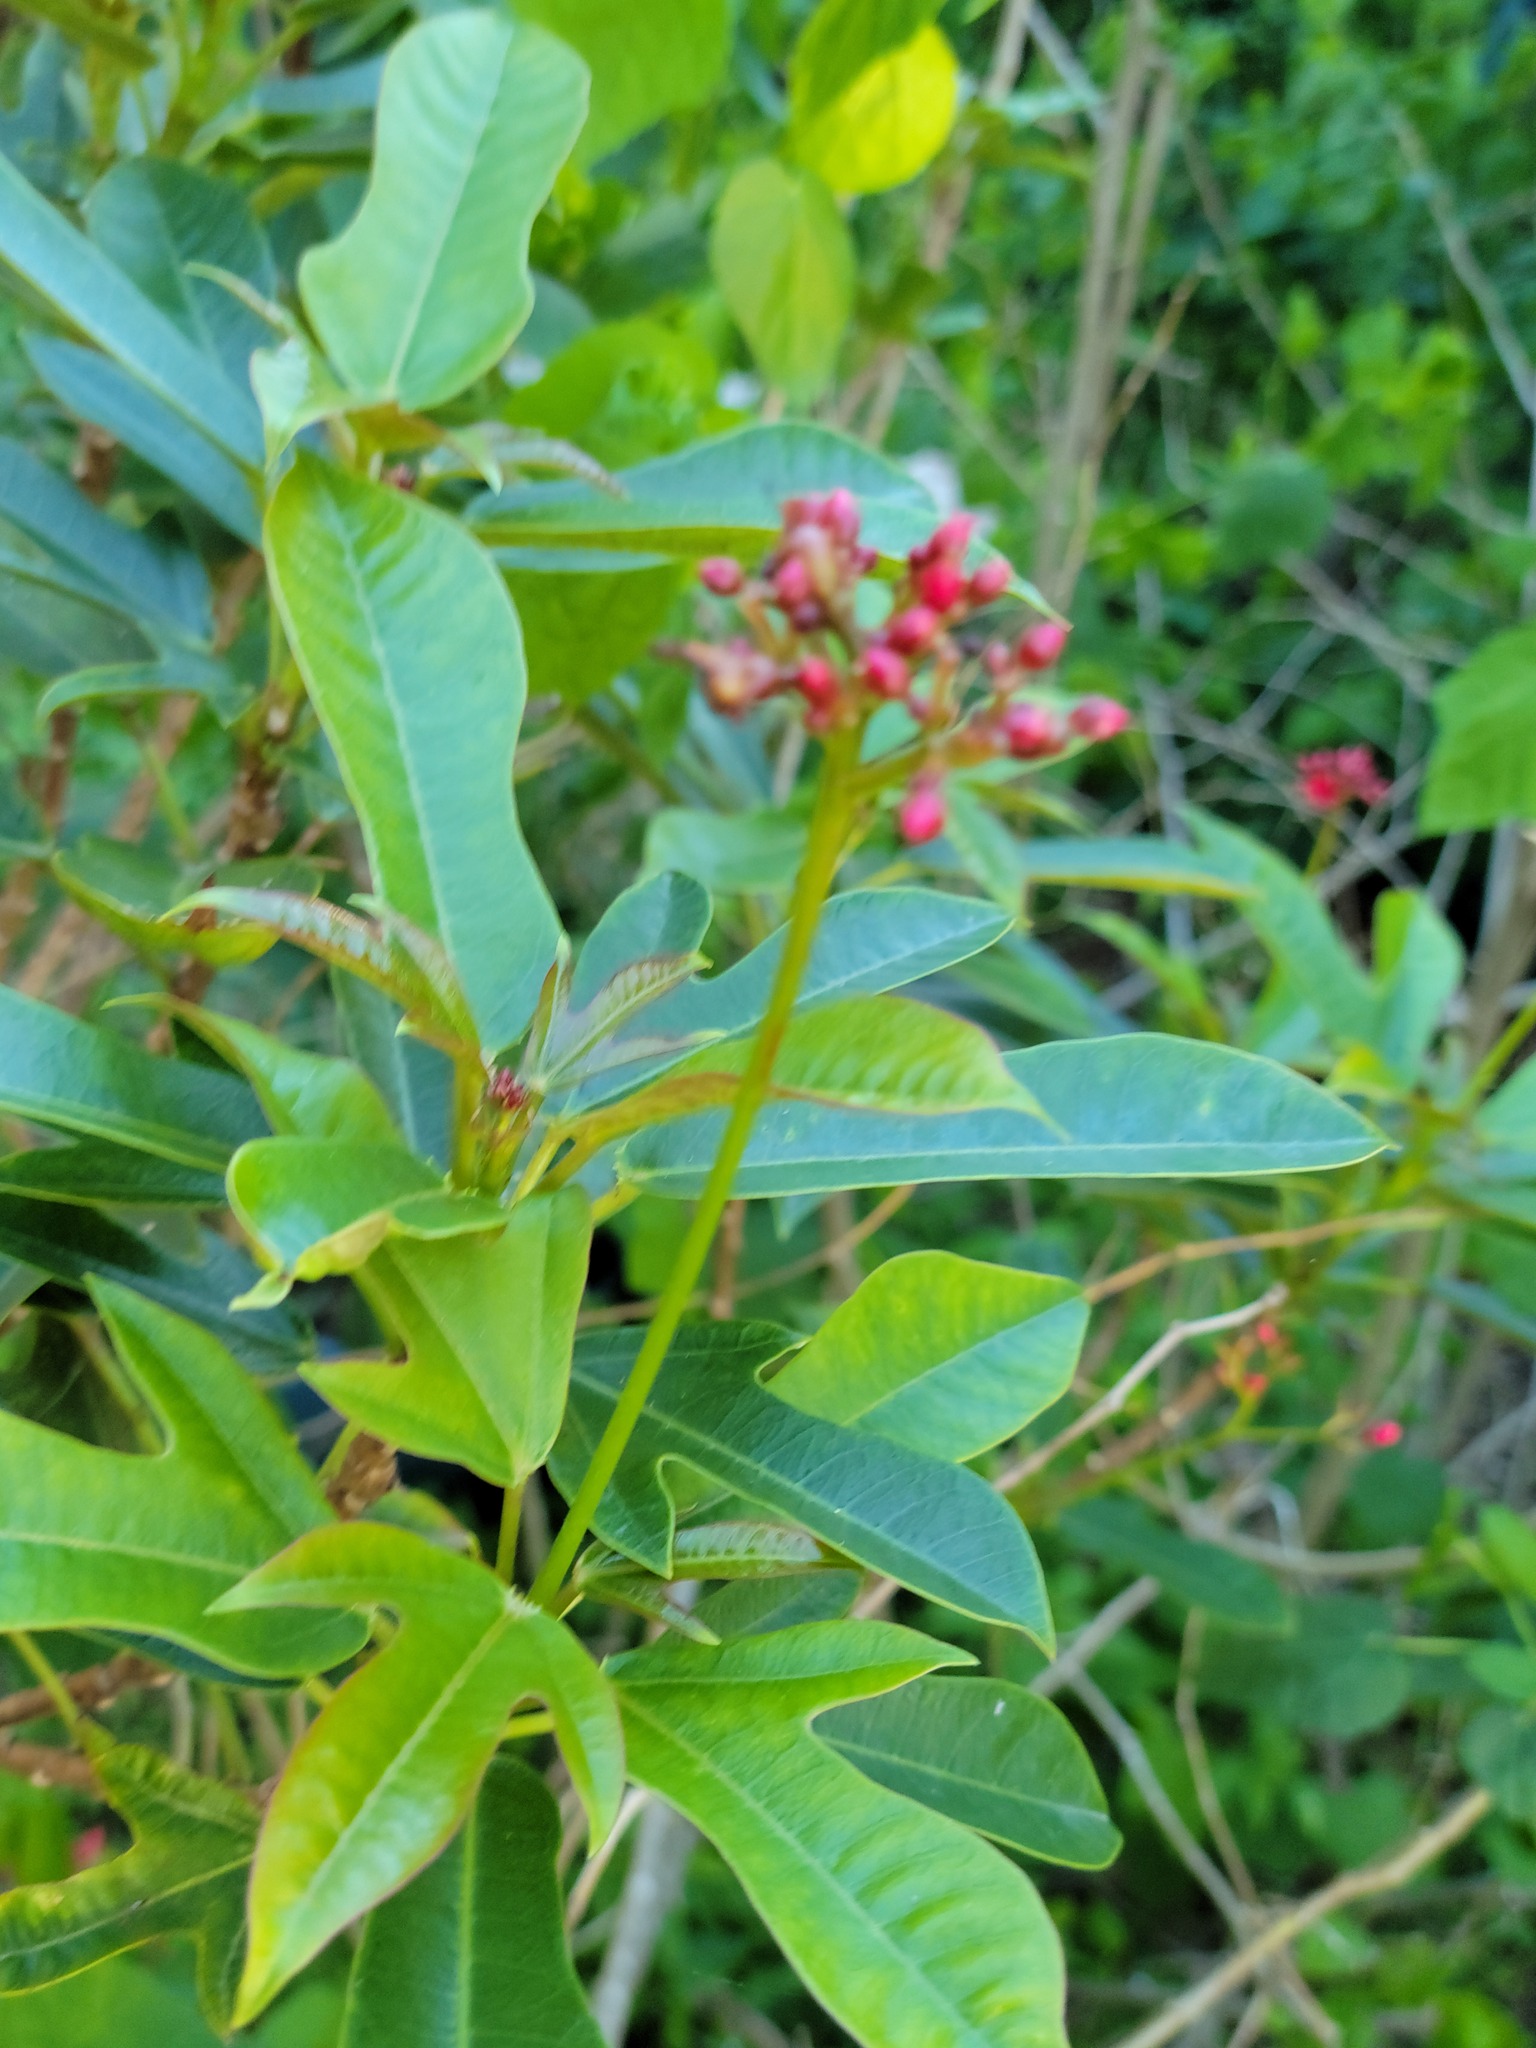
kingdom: Plantae
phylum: Tracheophyta
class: Magnoliopsida
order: Malpighiales
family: Euphorbiaceae
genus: Jatropha
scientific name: Jatropha integerrima
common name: Peregrina
